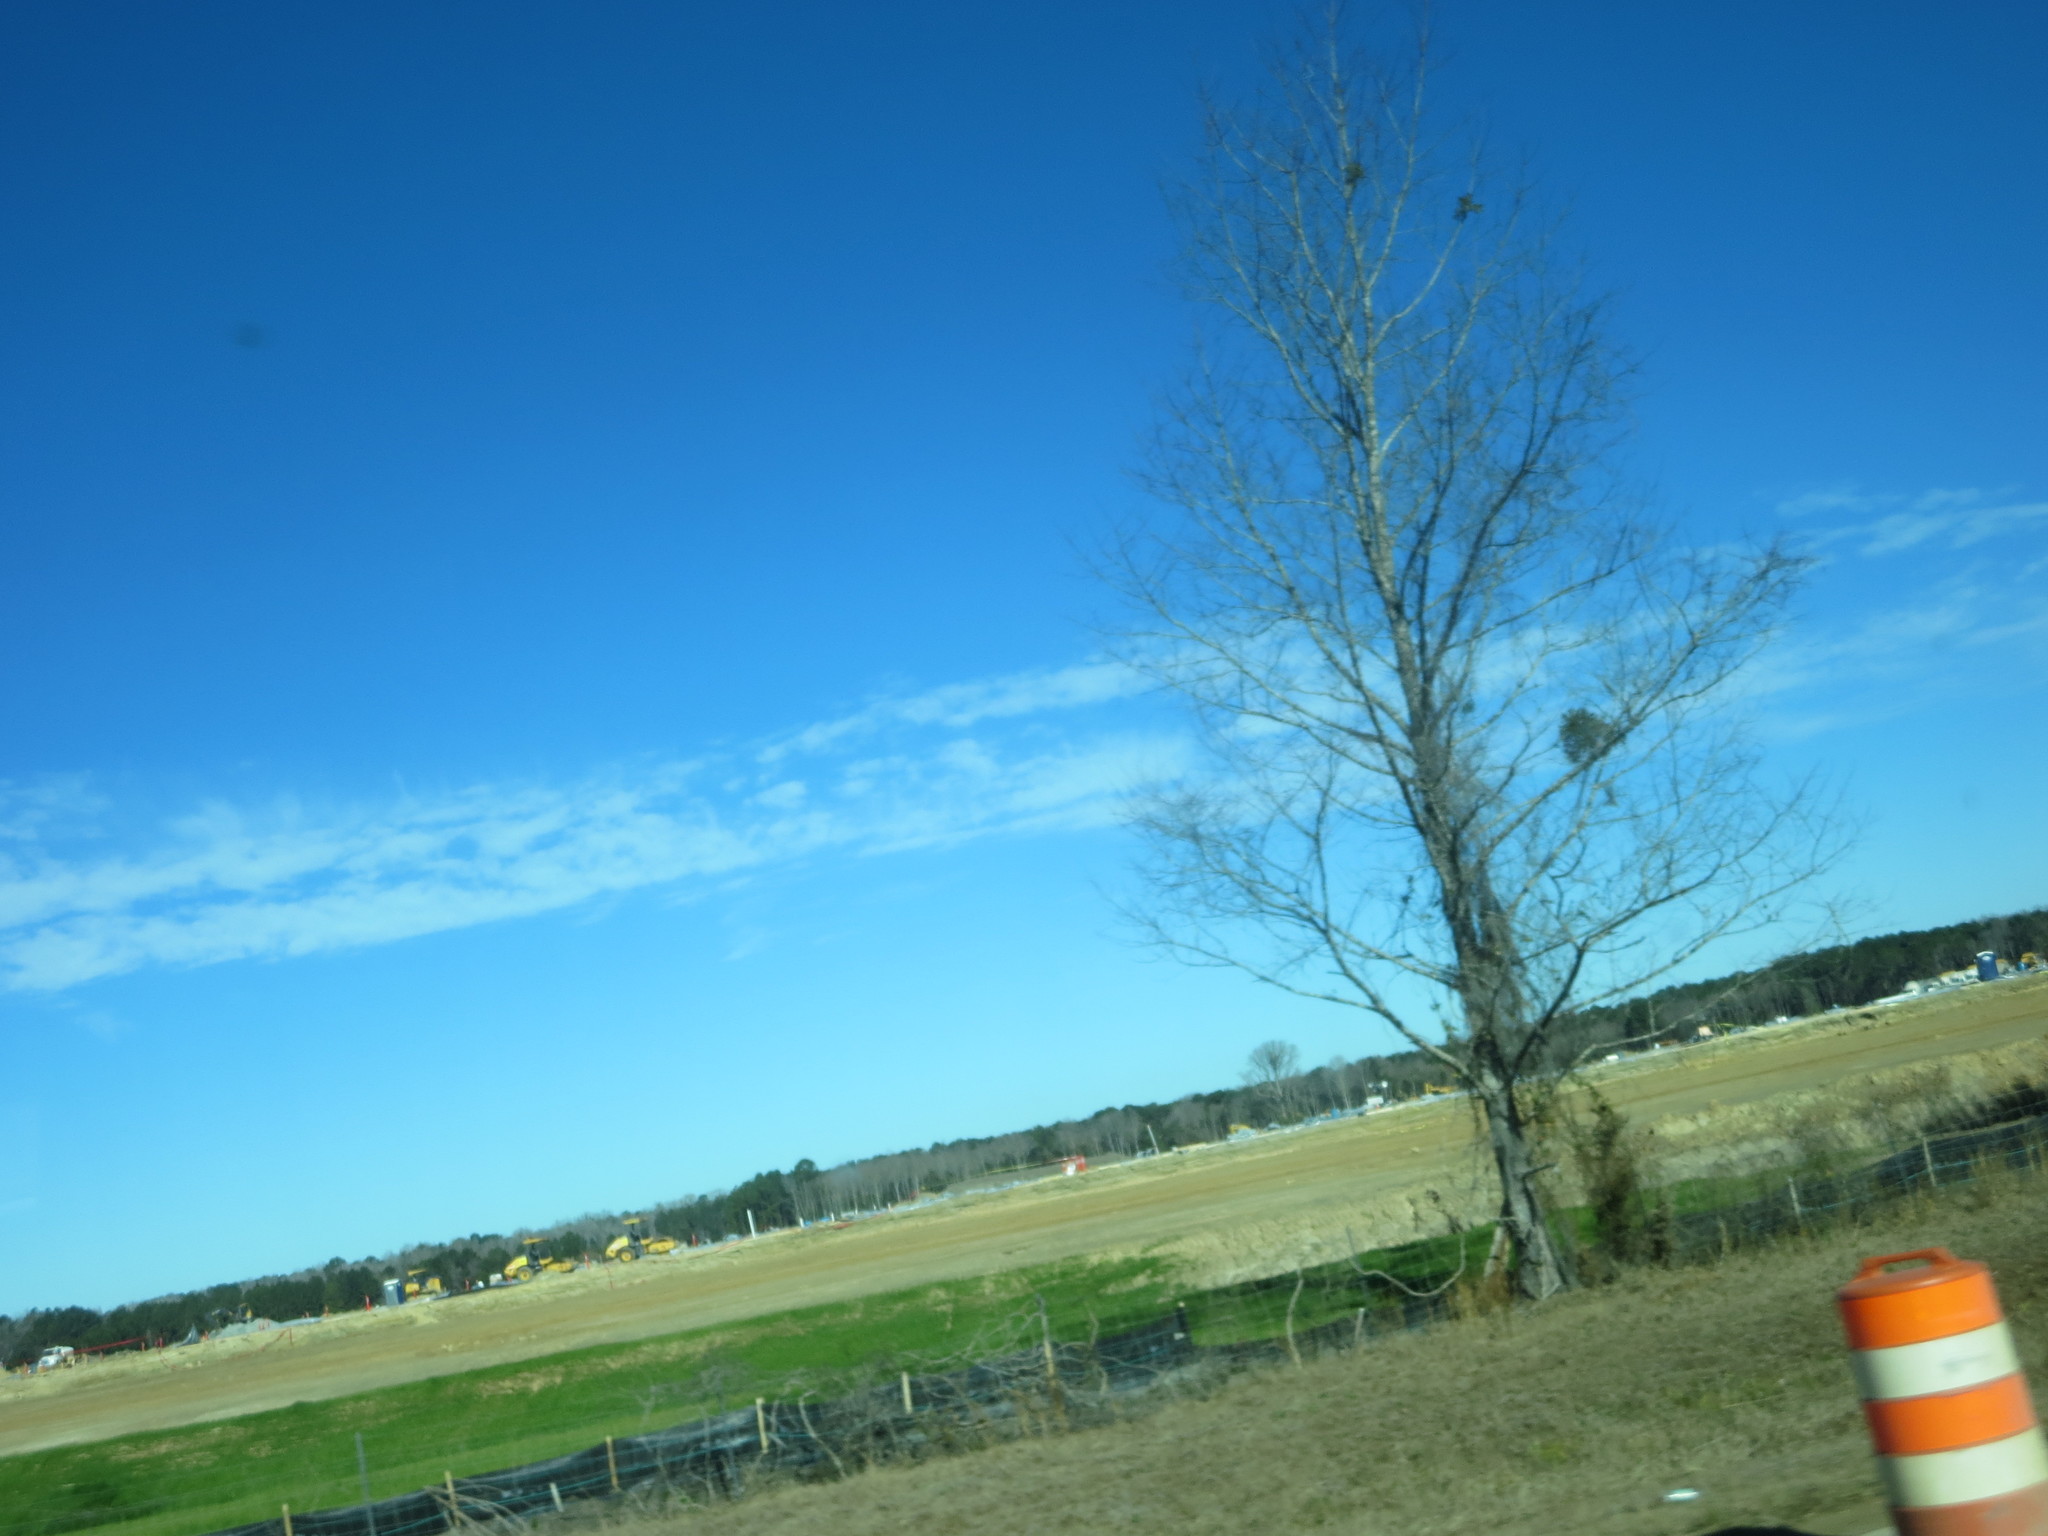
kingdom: Plantae
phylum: Tracheophyta
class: Magnoliopsida
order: Santalales
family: Viscaceae
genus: Phoradendron
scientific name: Phoradendron leucarpum
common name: Pacific mistletoe
